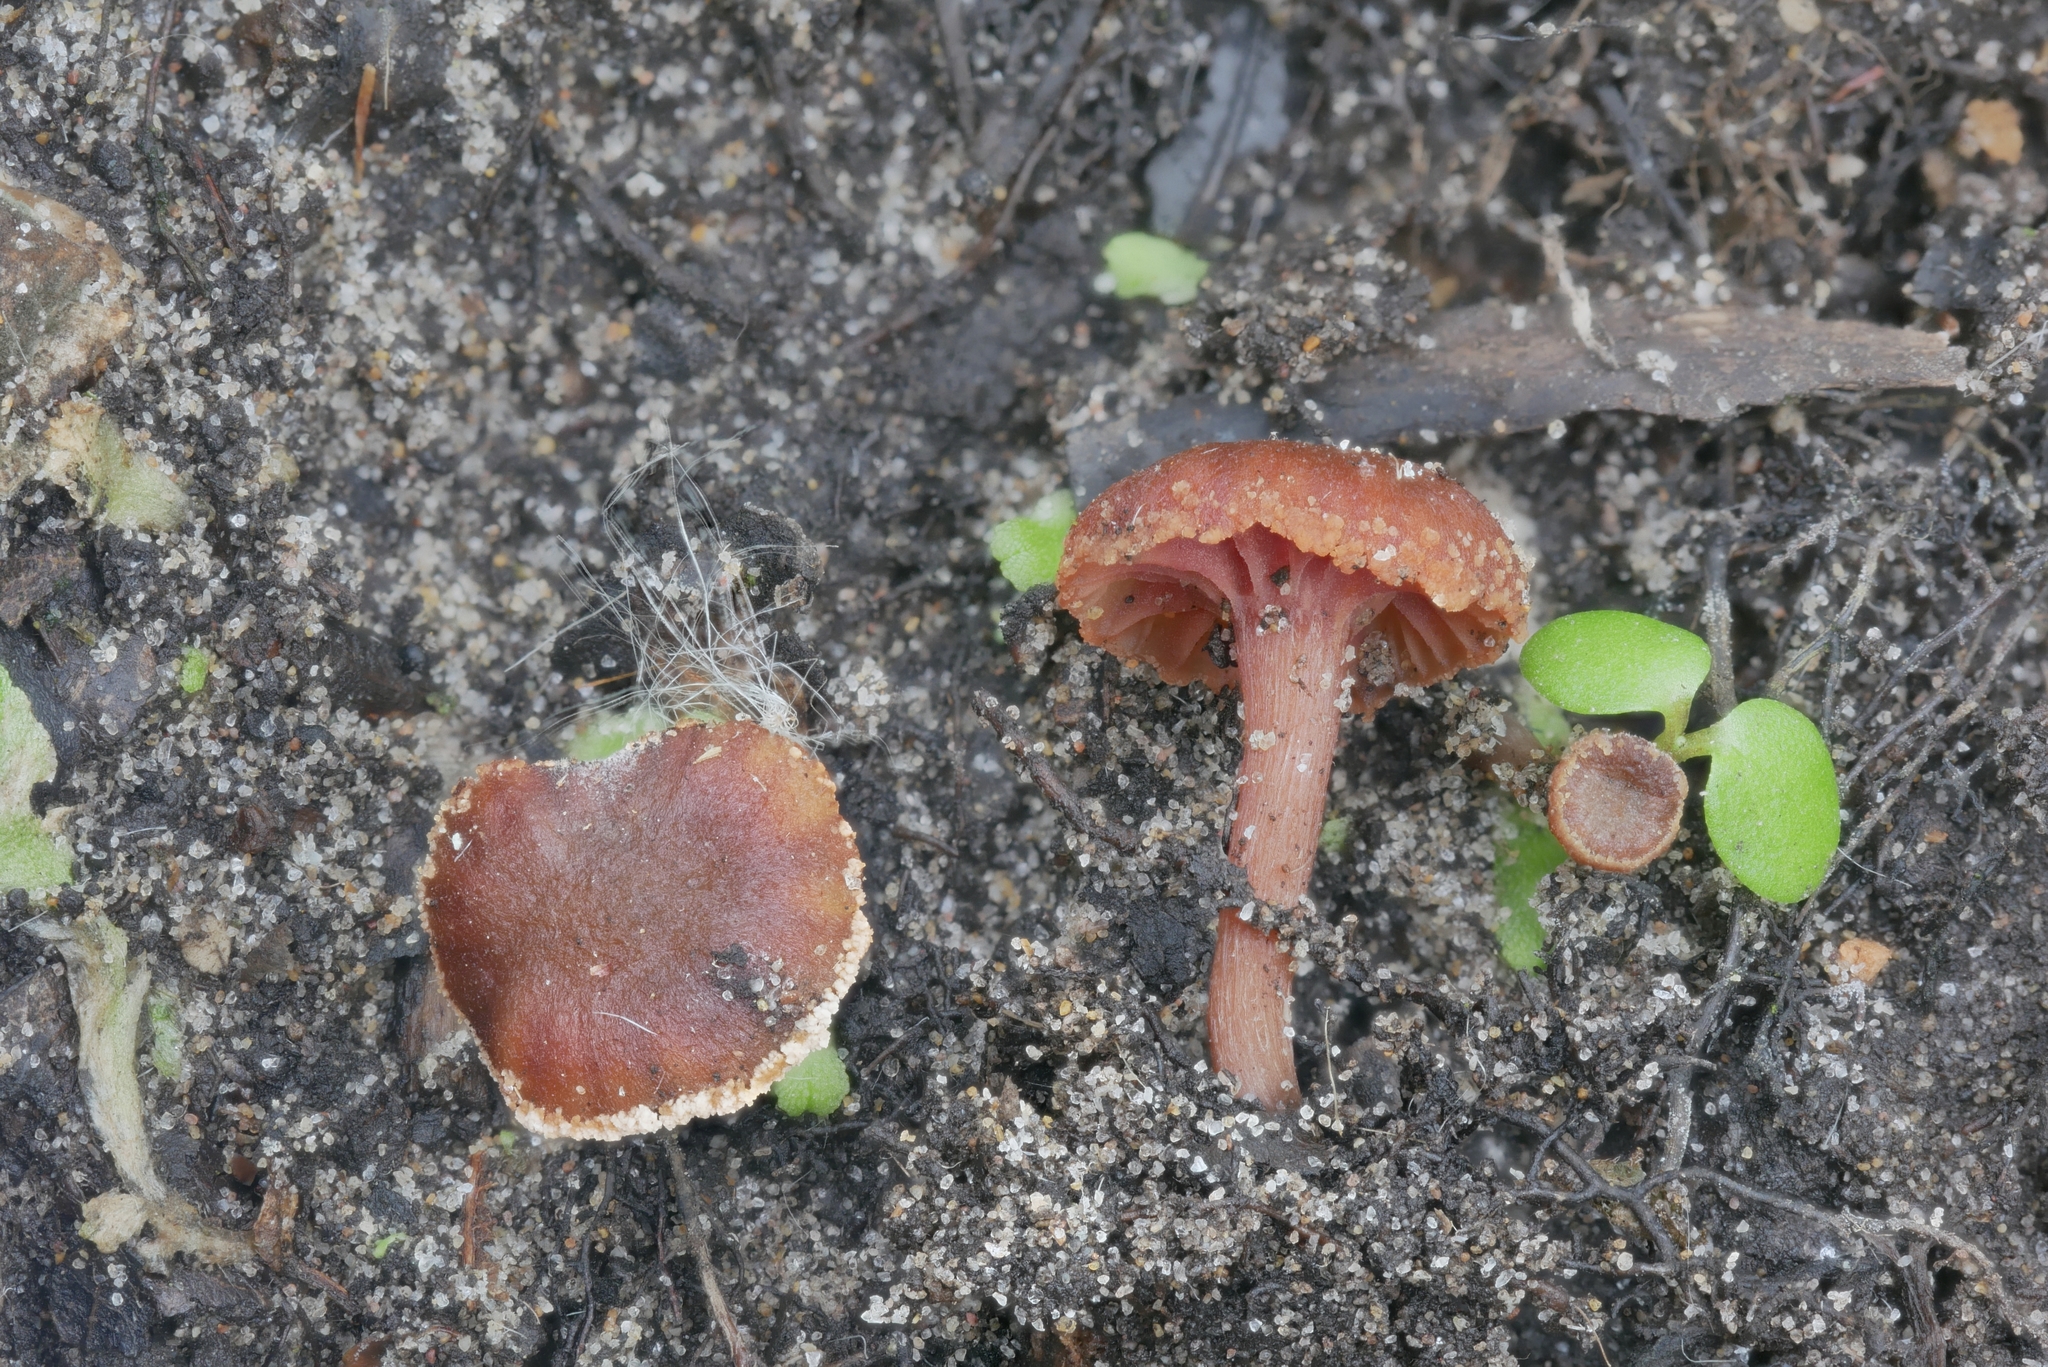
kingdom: Fungi
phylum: Basidiomycota
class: Agaricomycetes
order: Agaricales
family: Hydnangiaceae
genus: Laccaria
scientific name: Laccaria laccata
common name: Deceiver
